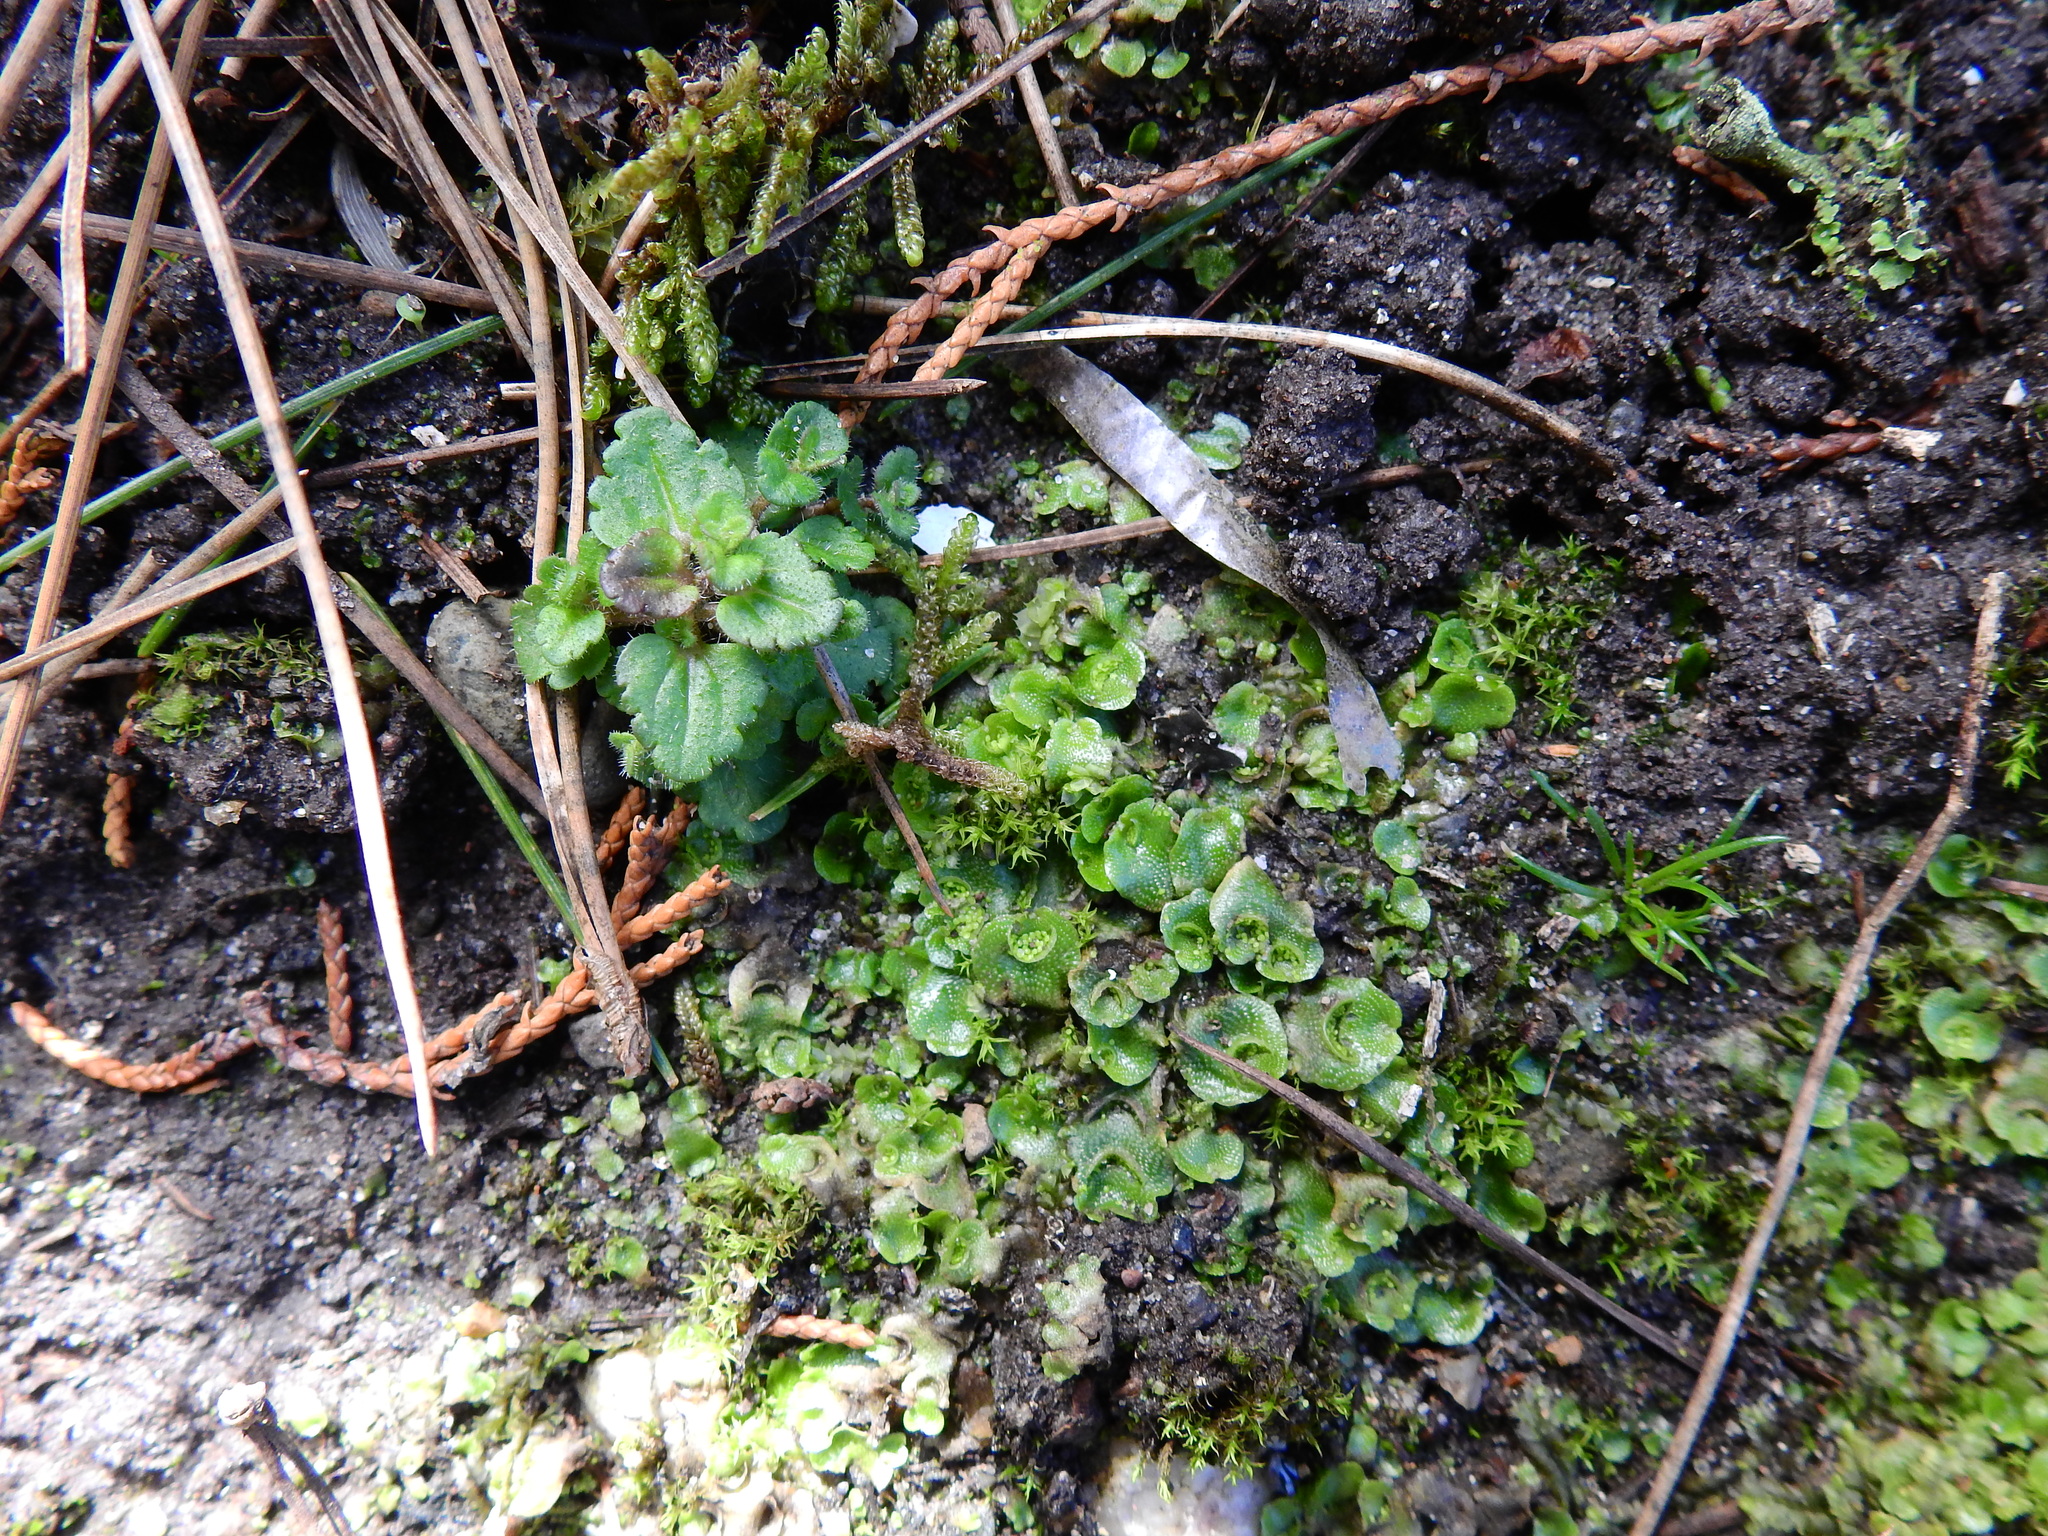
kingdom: Plantae
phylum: Marchantiophyta
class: Marchantiopsida
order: Lunulariales
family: Lunulariaceae
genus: Lunularia
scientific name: Lunularia cruciata
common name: Crescent-cup liverwort
